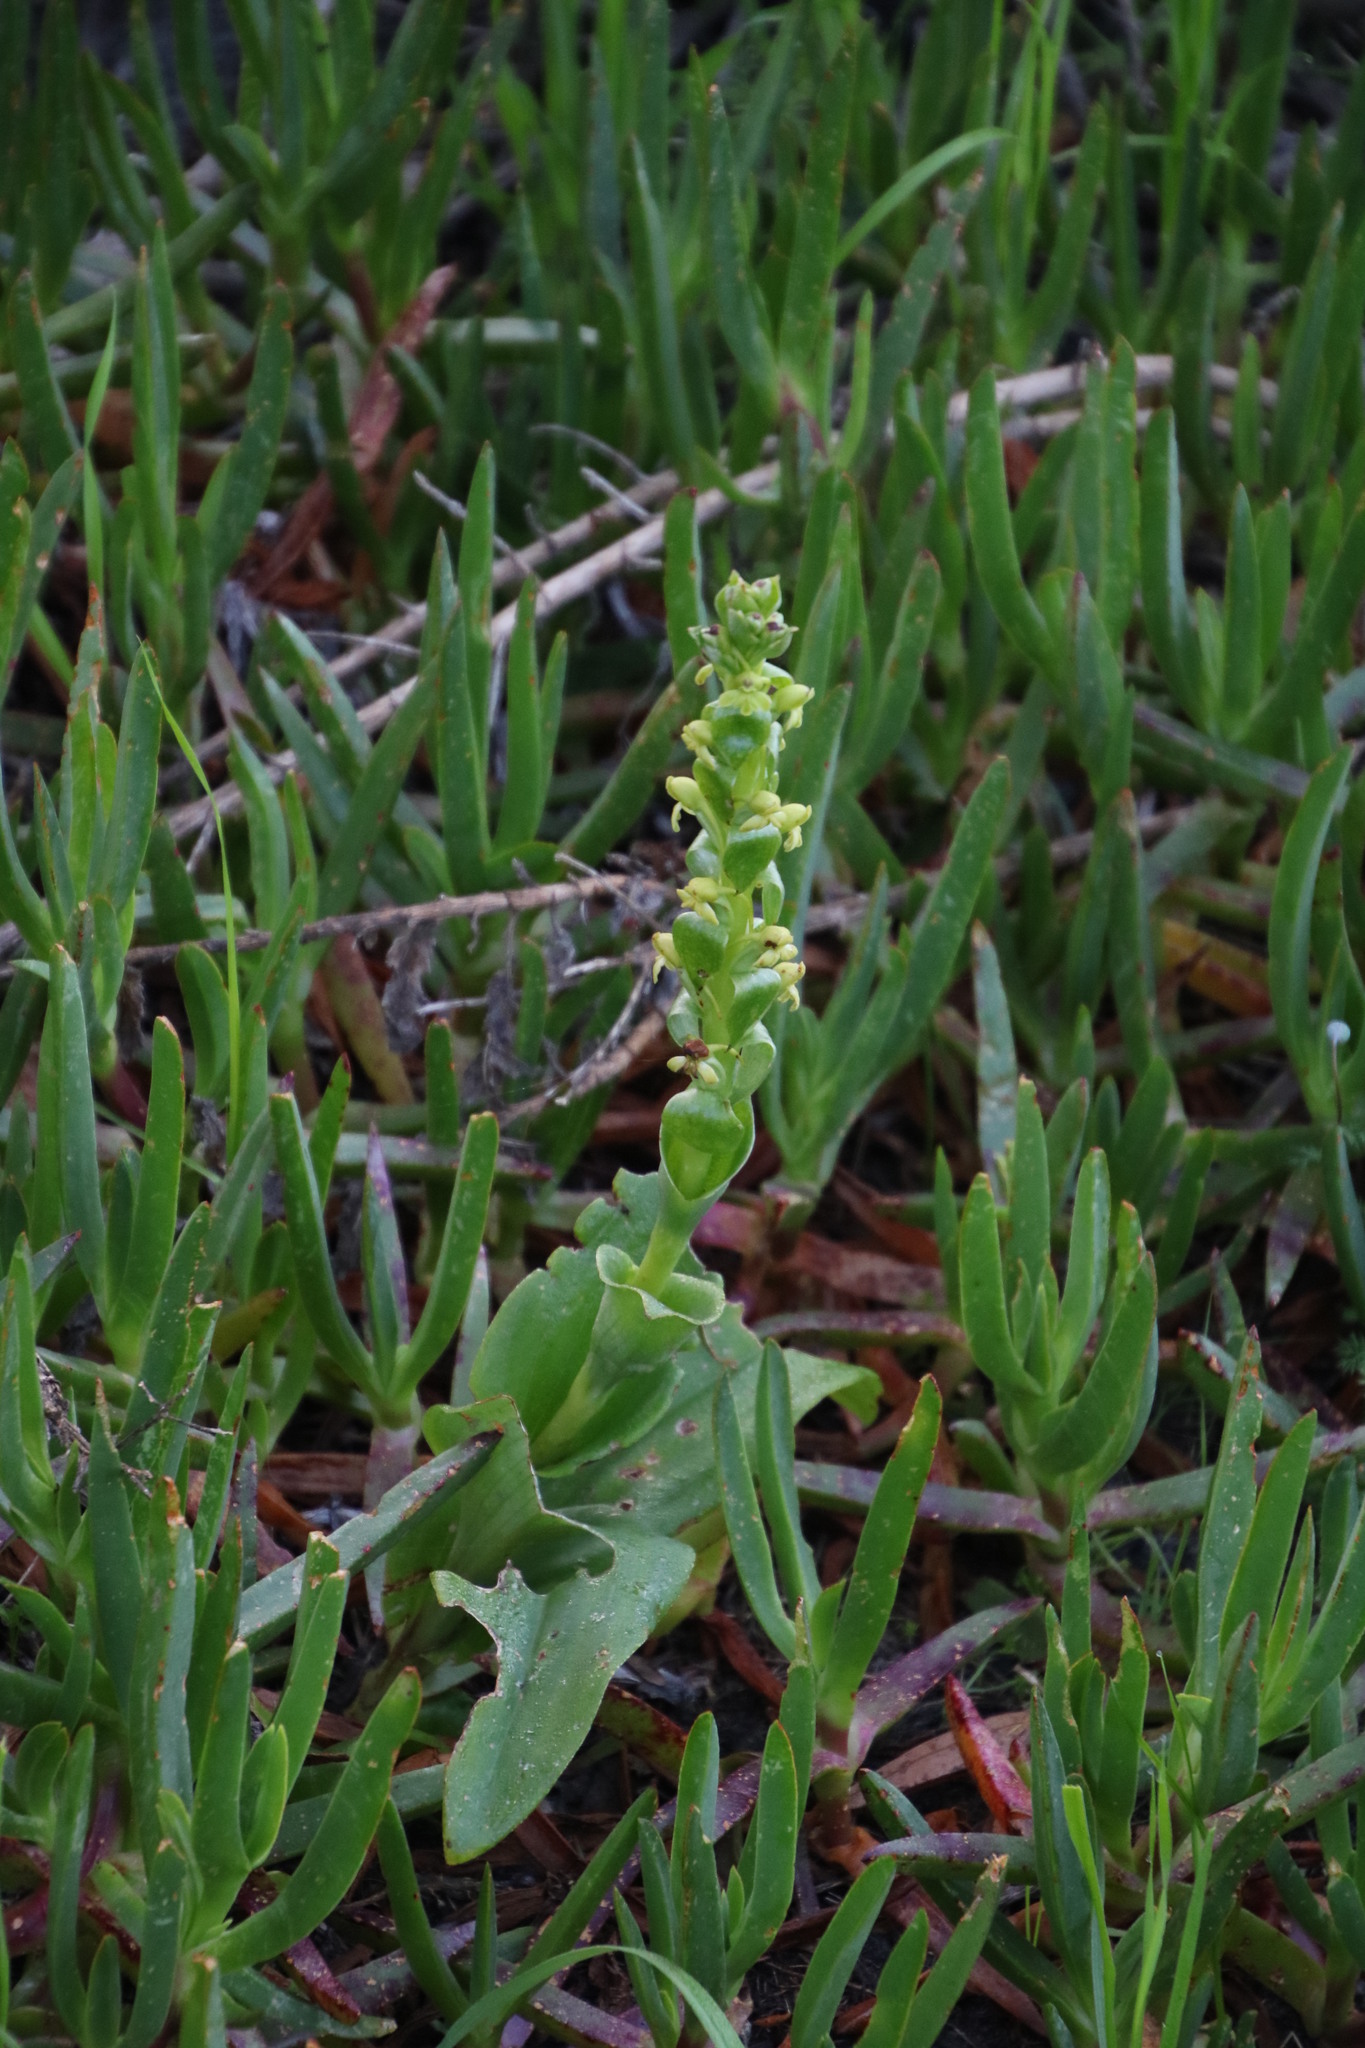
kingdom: Plantae
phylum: Tracheophyta
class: Liliopsida
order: Asparagales
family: Orchidaceae
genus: Satyrium
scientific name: Satyrium odorum
